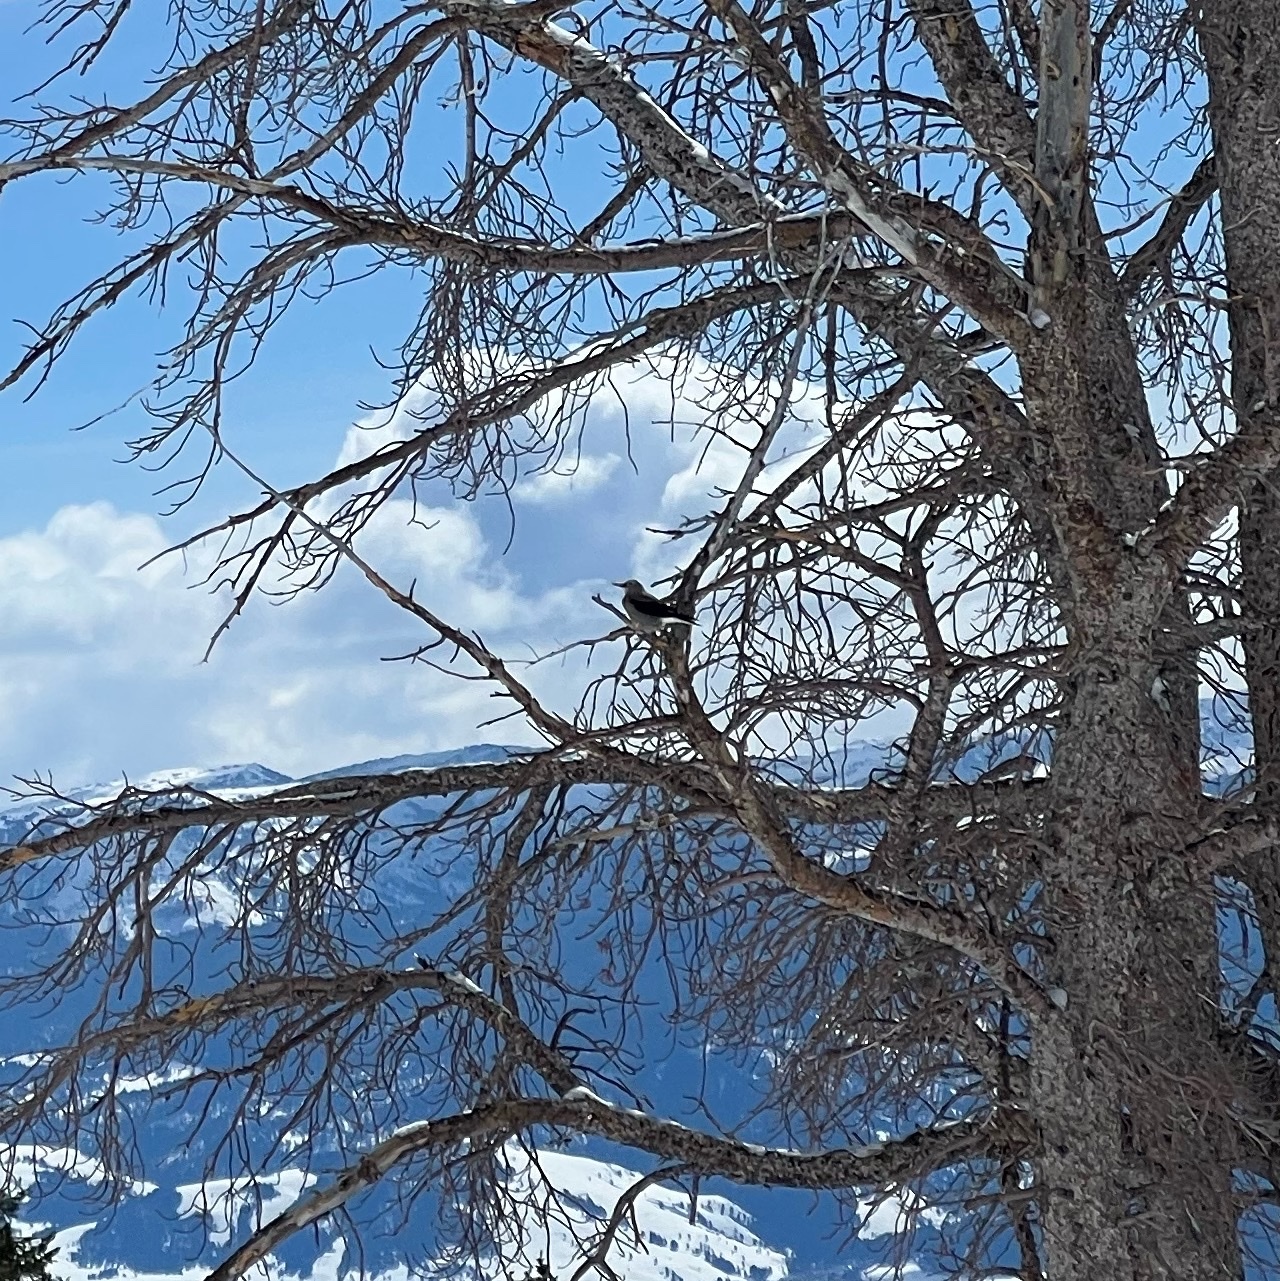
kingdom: Animalia
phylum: Chordata
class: Aves
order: Passeriformes
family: Corvidae
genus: Nucifraga
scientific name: Nucifraga columbiana
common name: Clark's nutcracker
